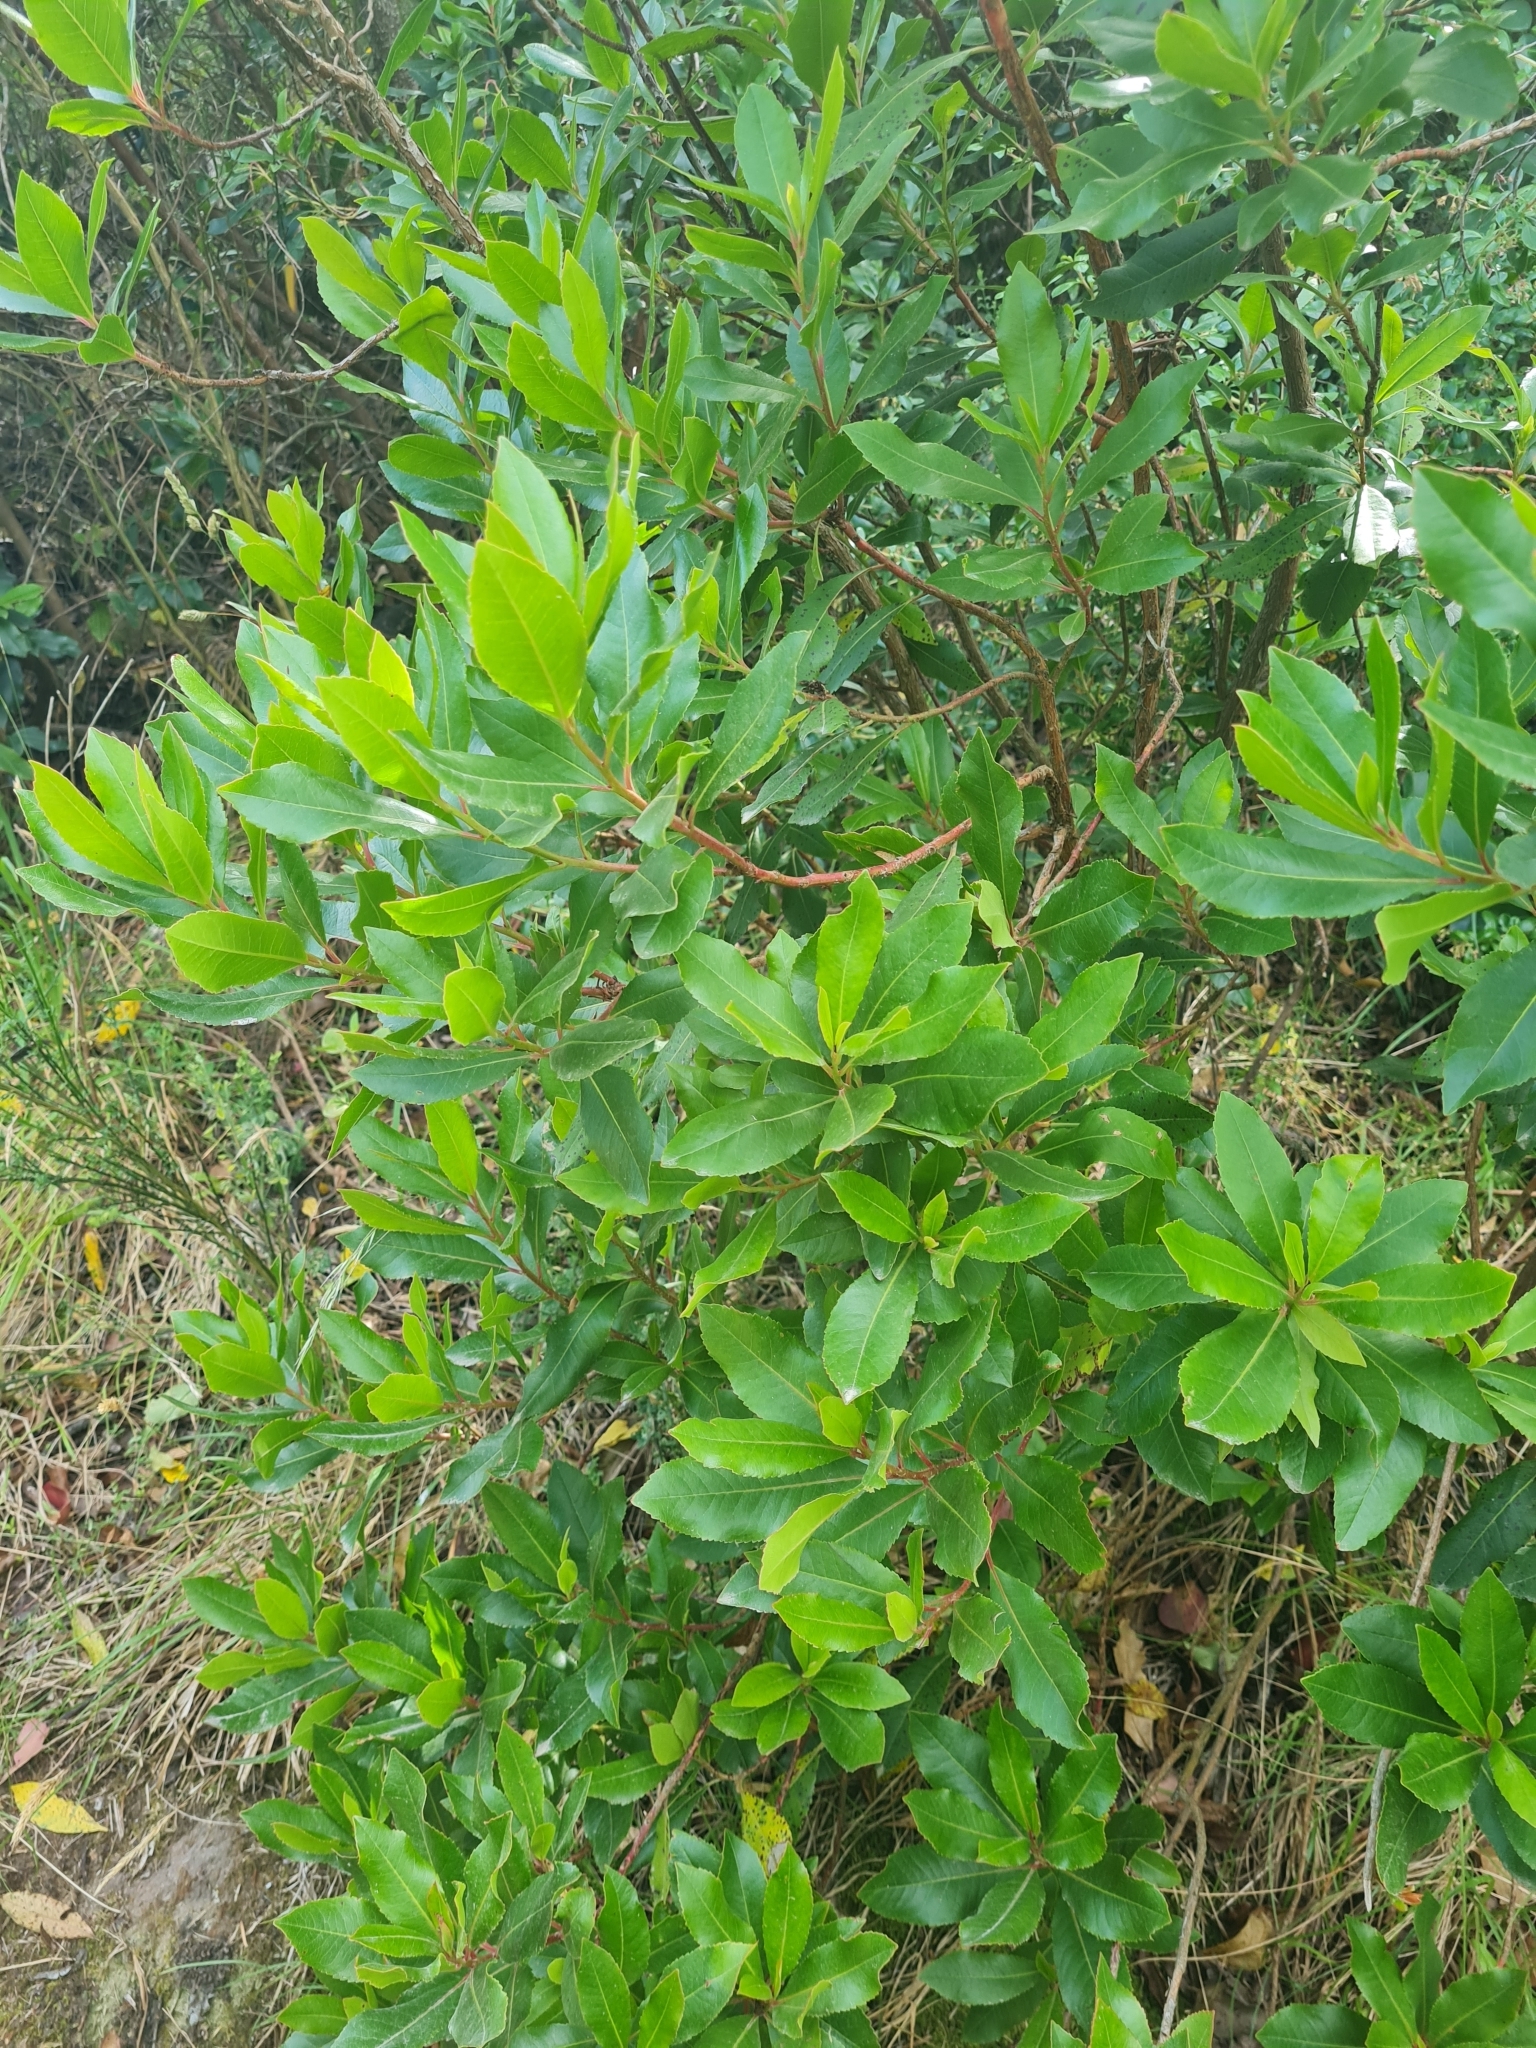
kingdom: Plantae
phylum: Tracheophyta
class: Magnoliopsida
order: Ericales
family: Ericaceae
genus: Arbutus
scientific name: Arbutus unedo
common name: Strawberry-tree
